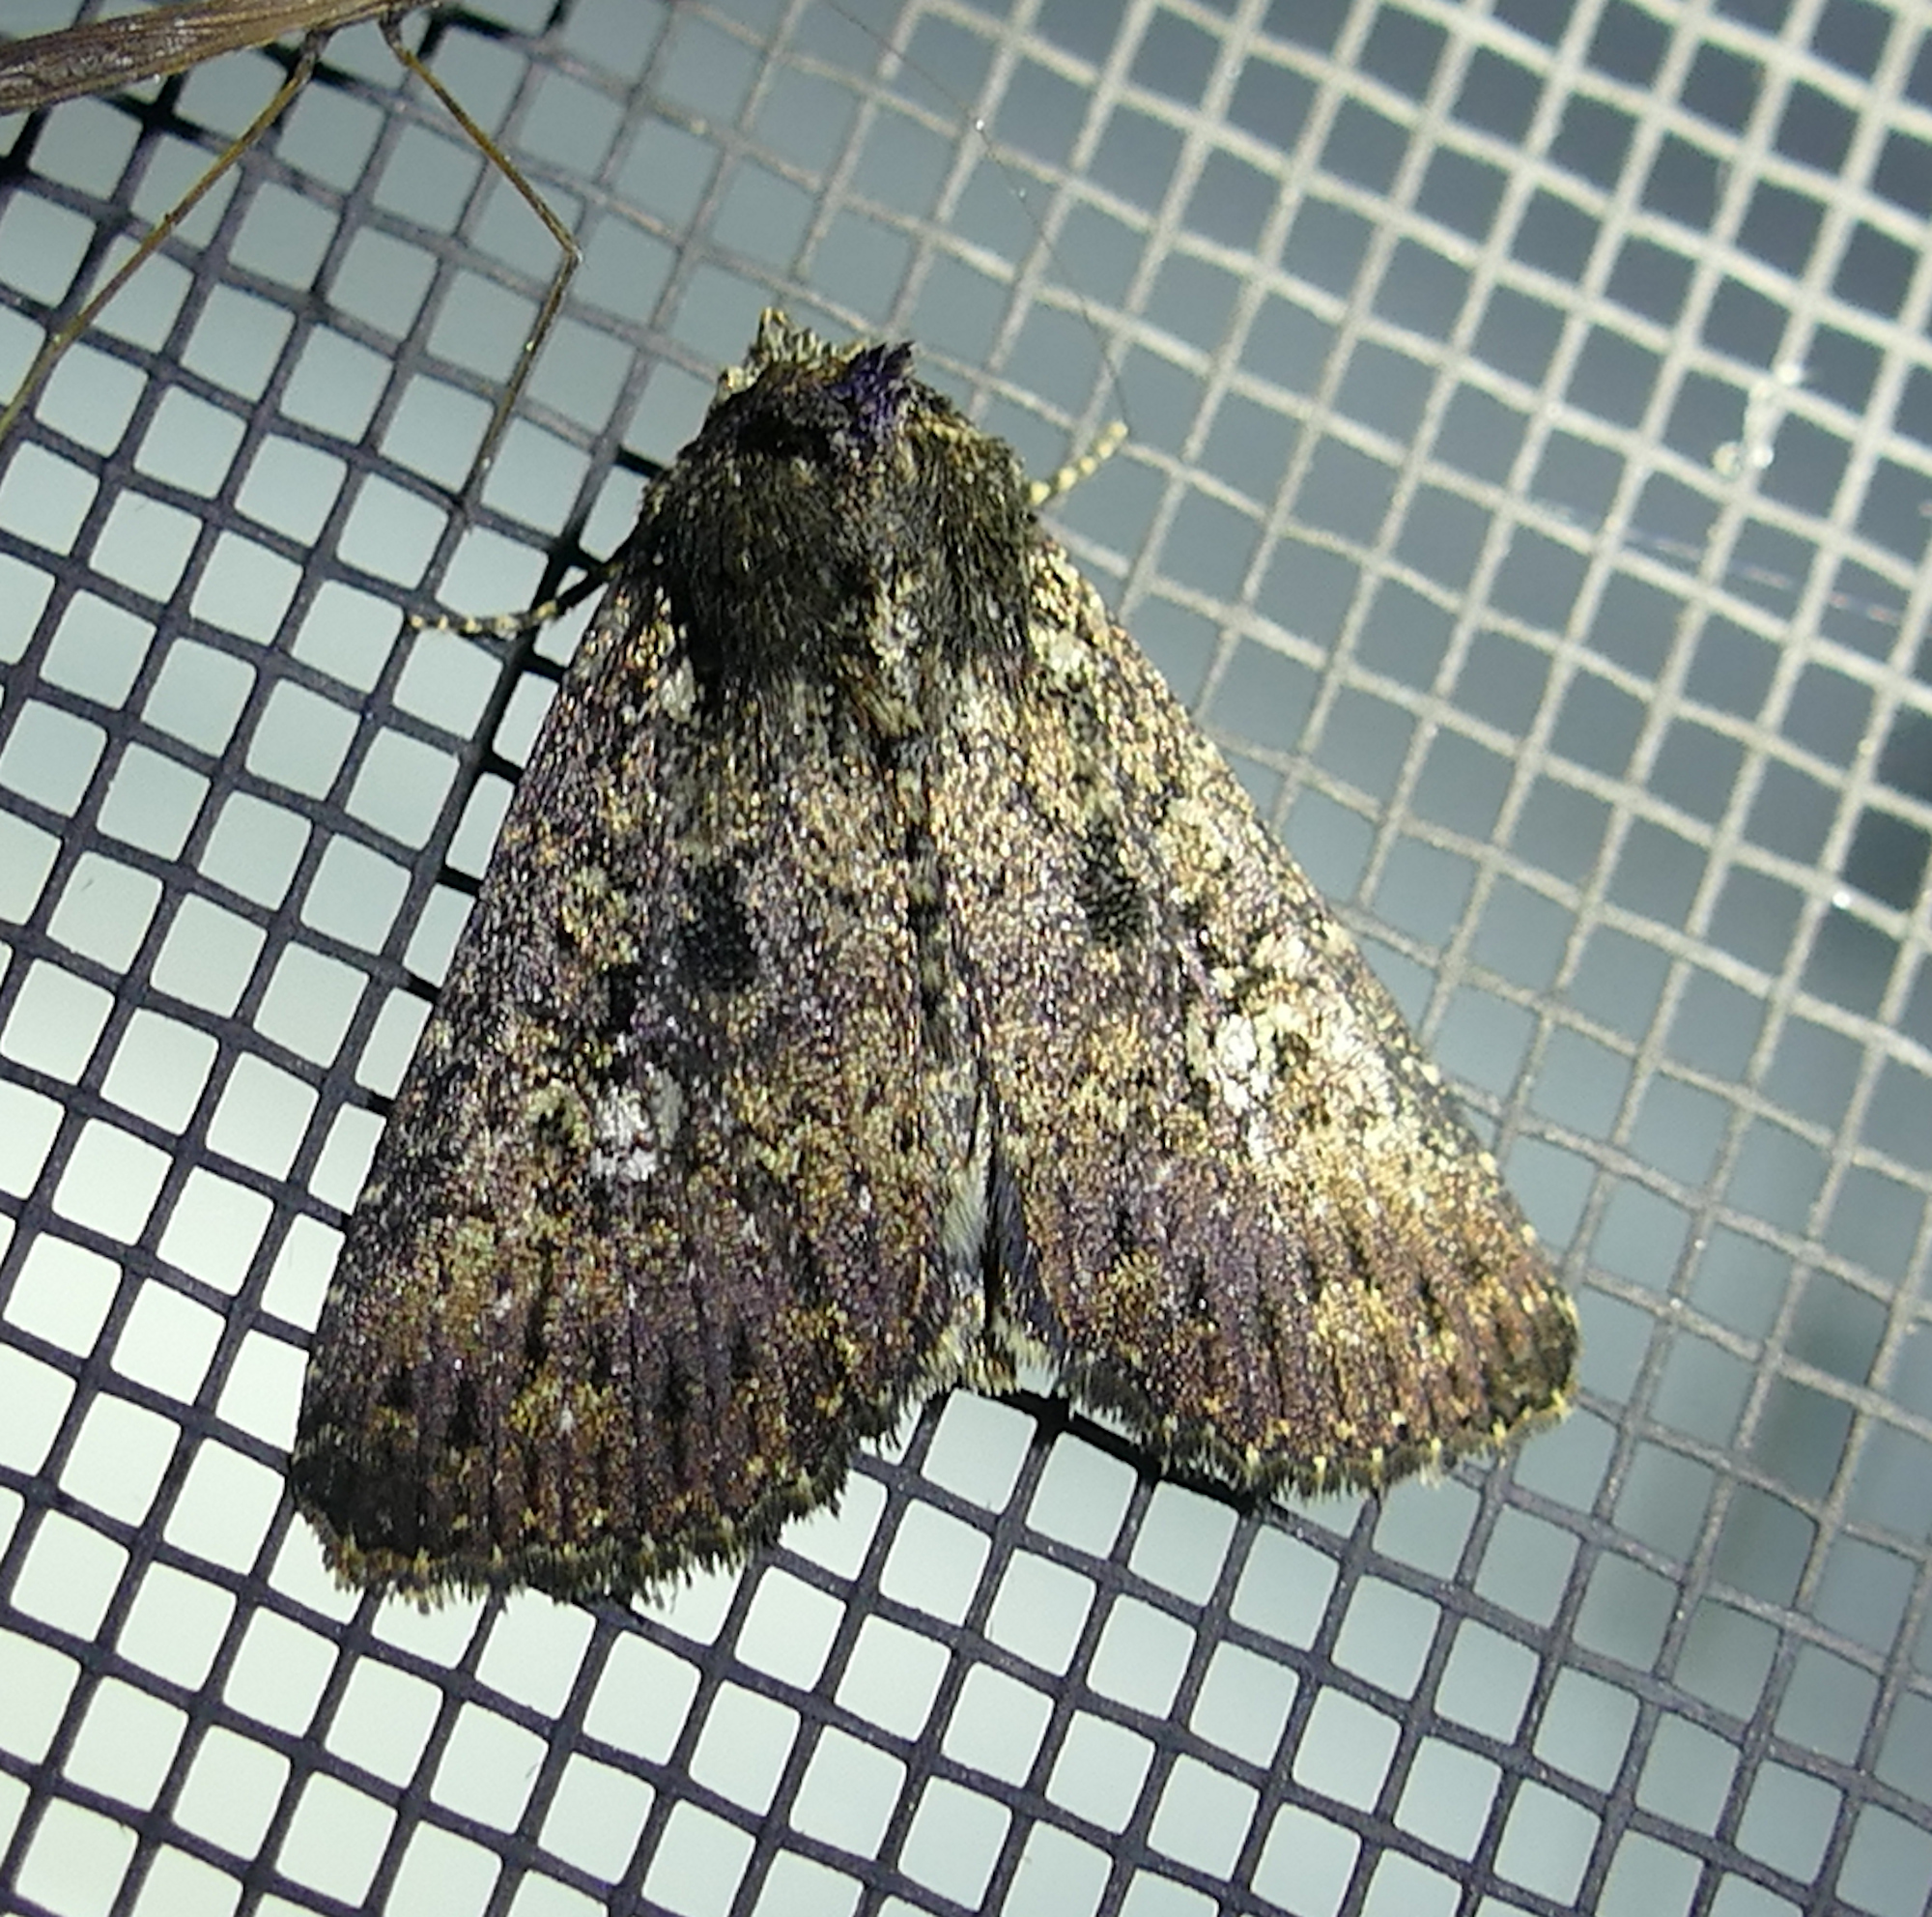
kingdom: Animalia
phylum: Arthropoda
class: Insecta
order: Lepidoptera
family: Noctuidae
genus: Condica
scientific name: Condica vecors
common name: Dusky groundling
